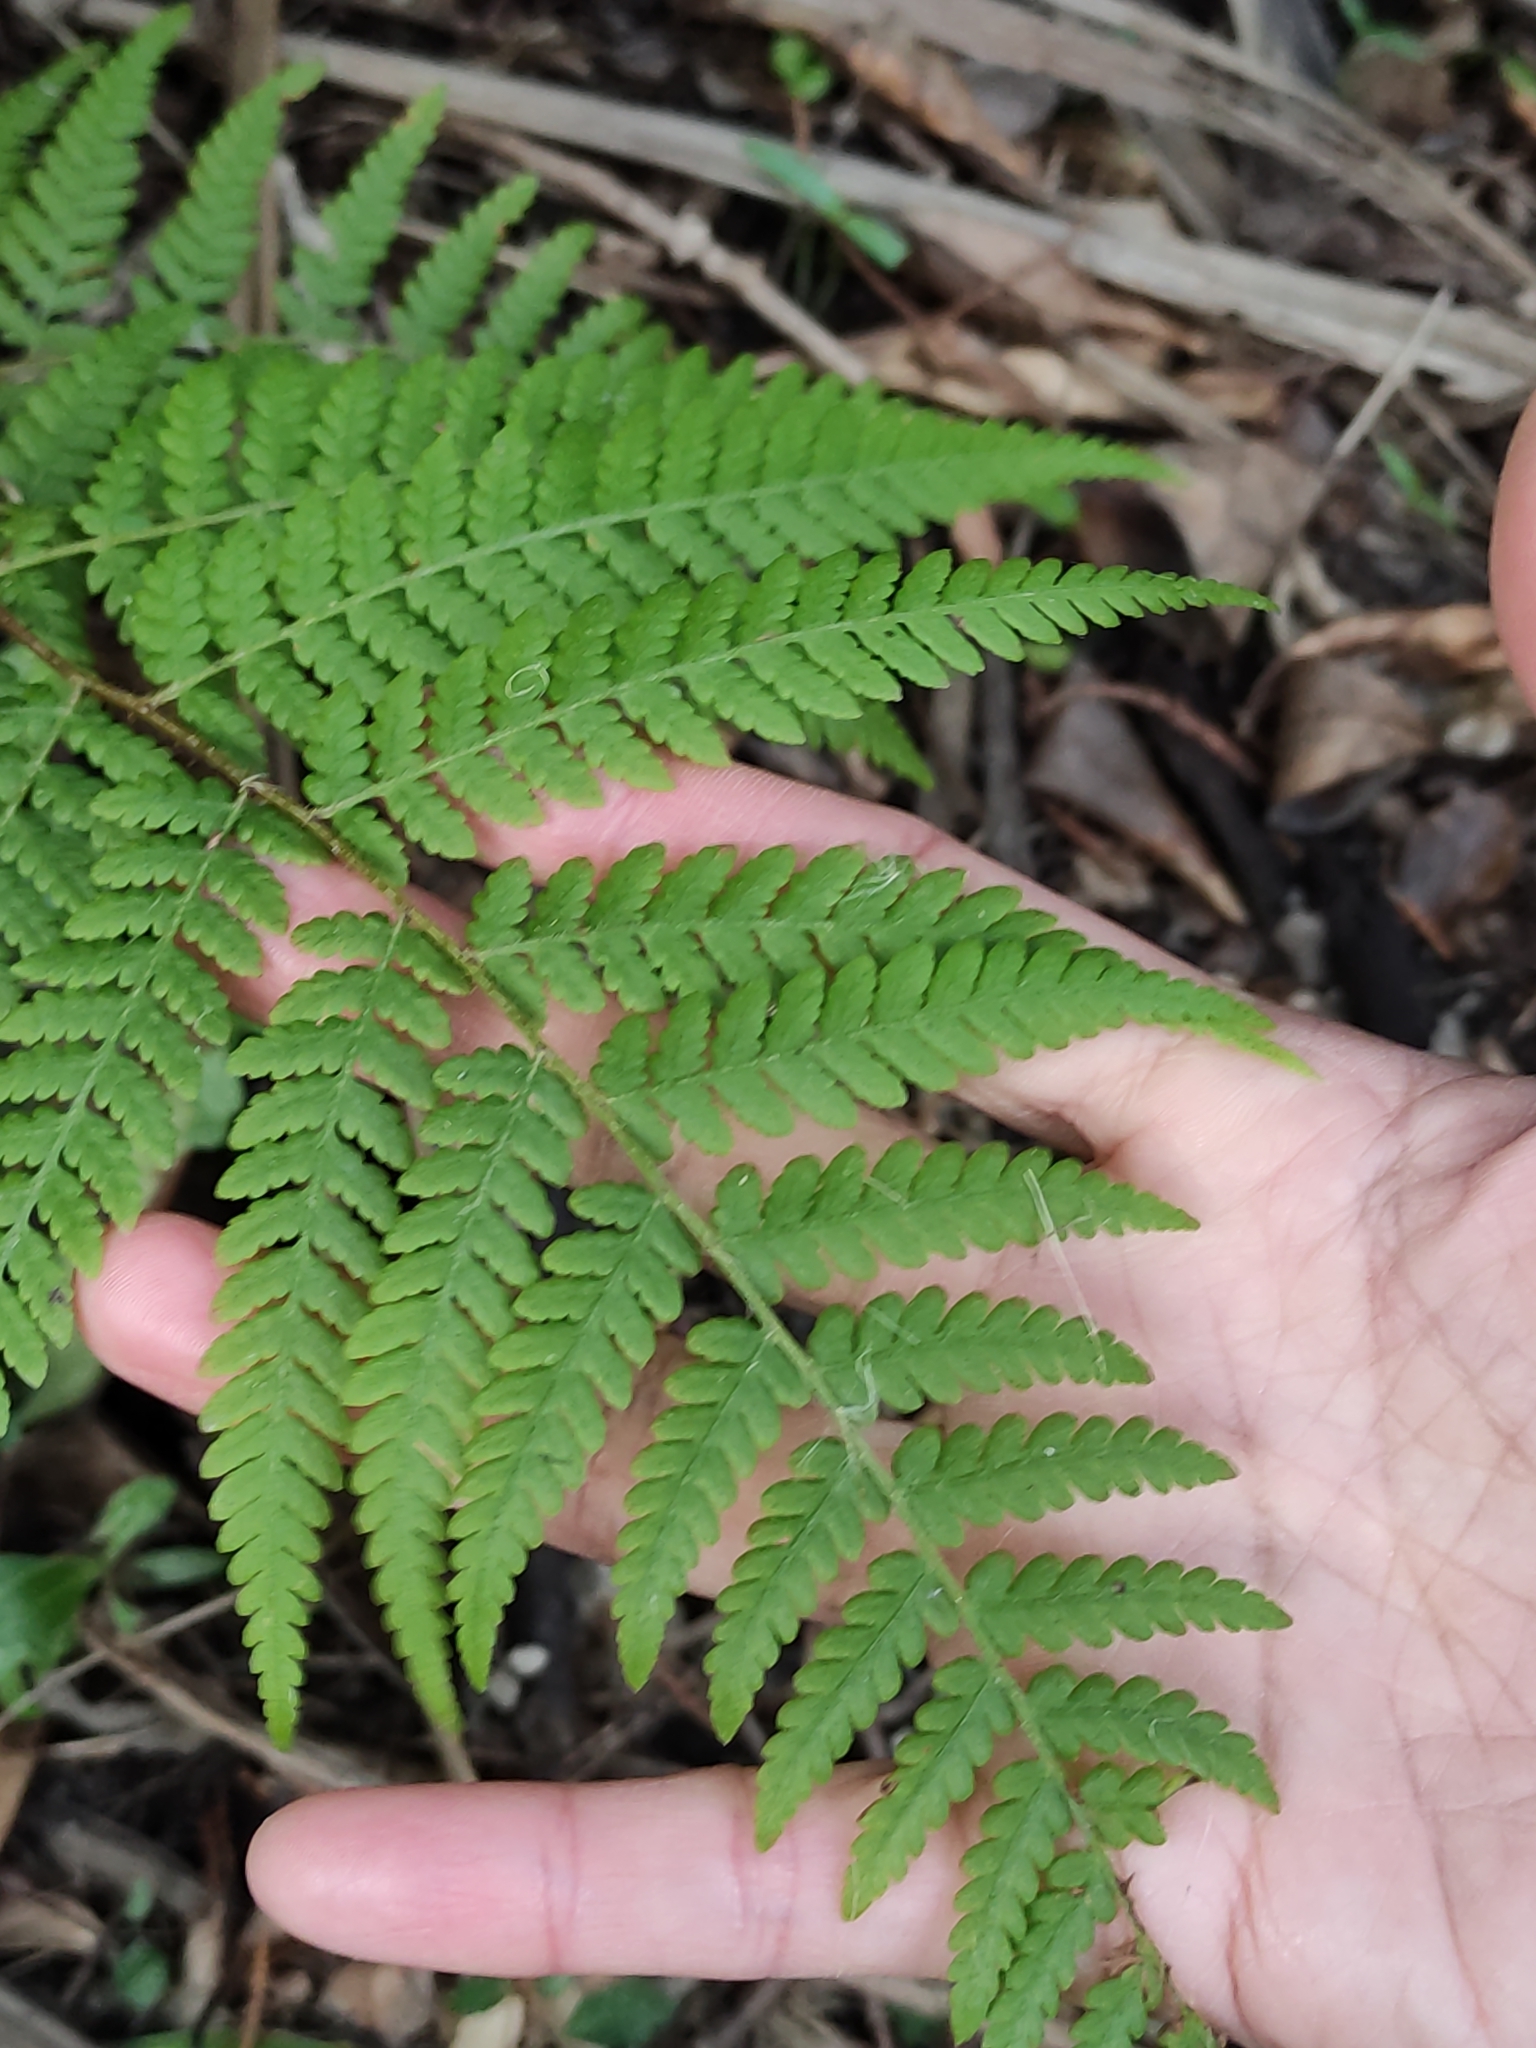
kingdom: Plantae
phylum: Tracheophyta
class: Polypodiopsida
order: Polypodiales
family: Dennstaedtiaceae
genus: Hypolepis
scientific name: Hypolepis ambigua
